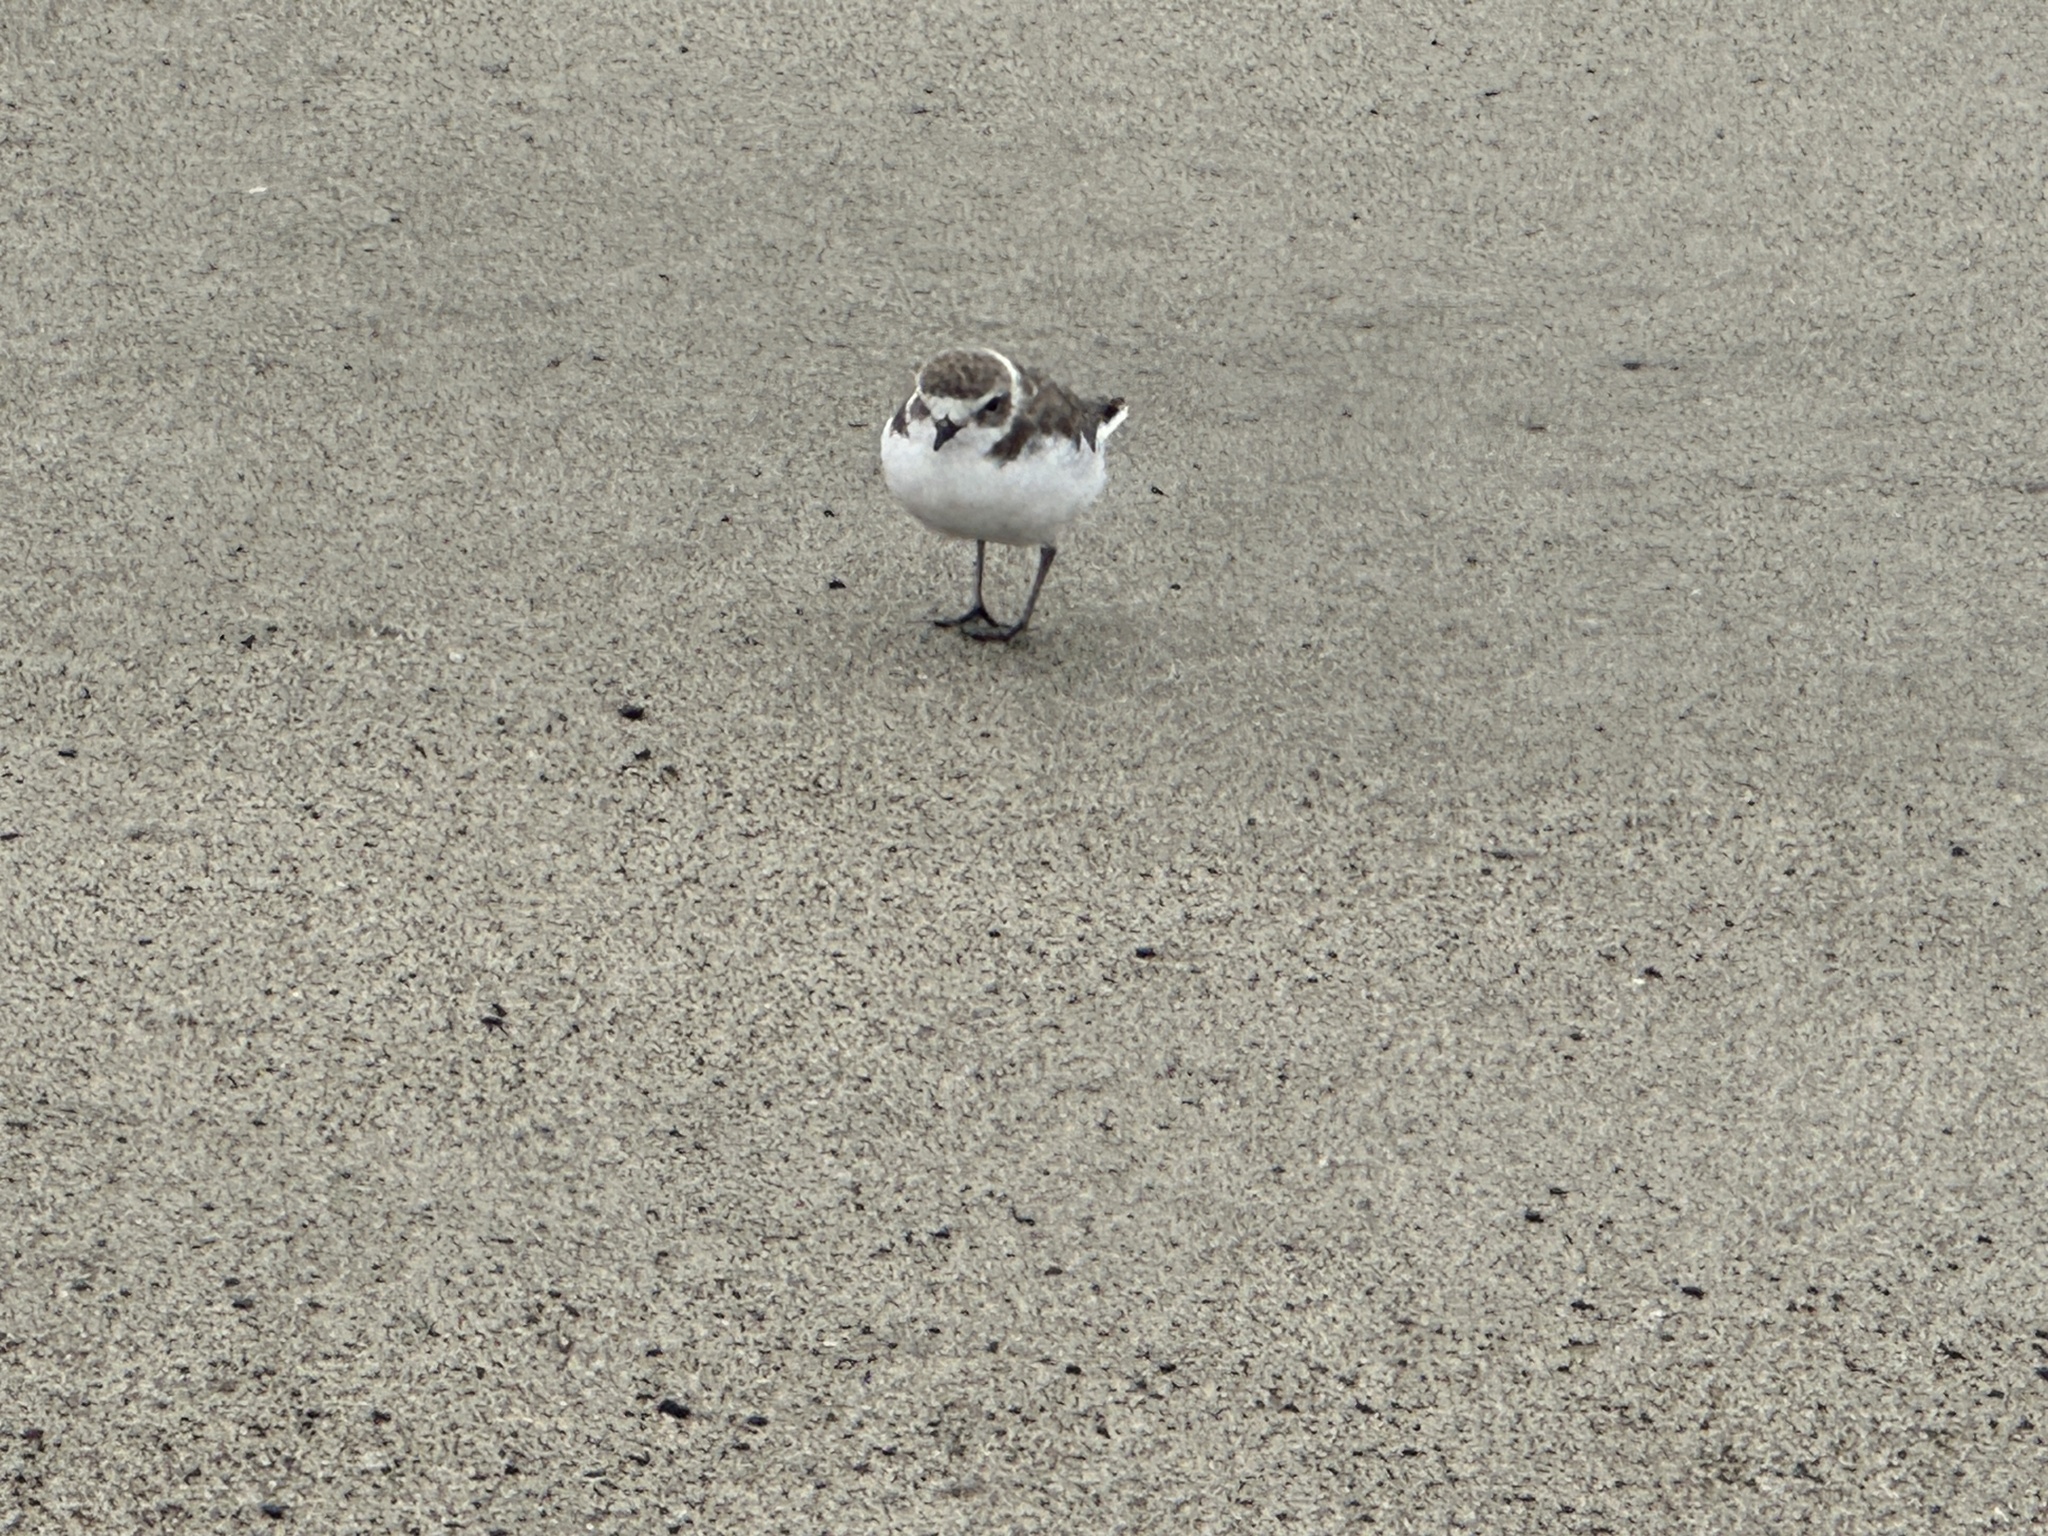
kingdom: Animalia
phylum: Chordata
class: Aves
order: Charadriiformes
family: Charadriidae
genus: Anarhynchus
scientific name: Anarhynchus
